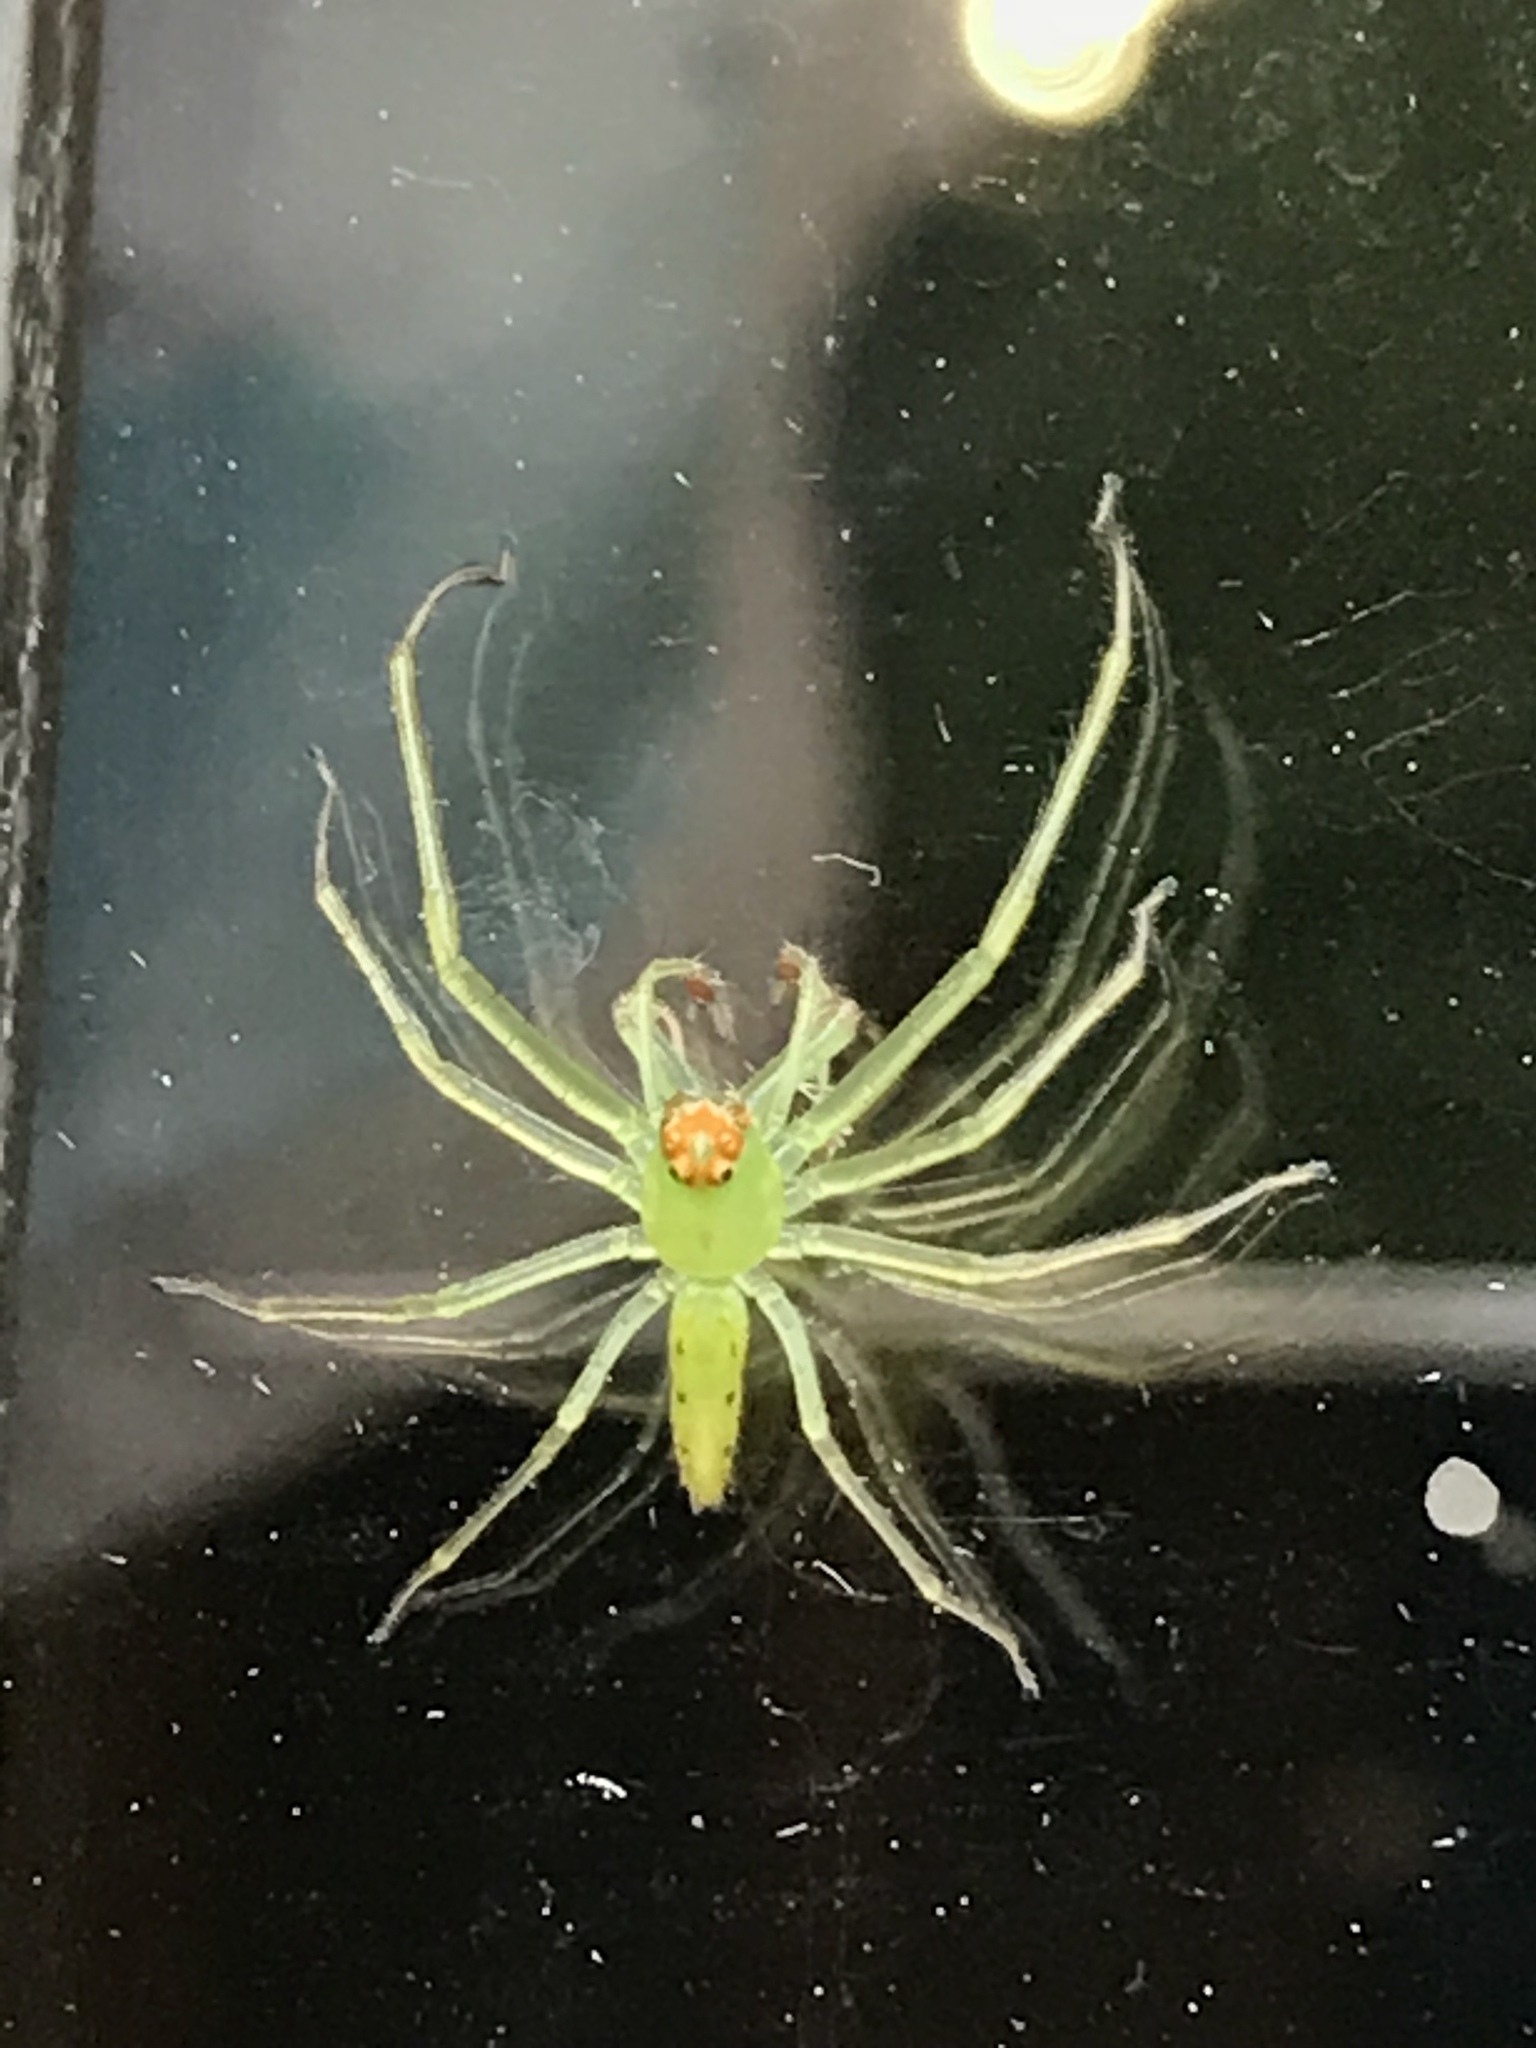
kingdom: Animalia
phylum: Arthropoda
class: Arachnida
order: Araneae
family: Salticidae
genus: Lyssomanes
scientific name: Lyssomanes viridis
